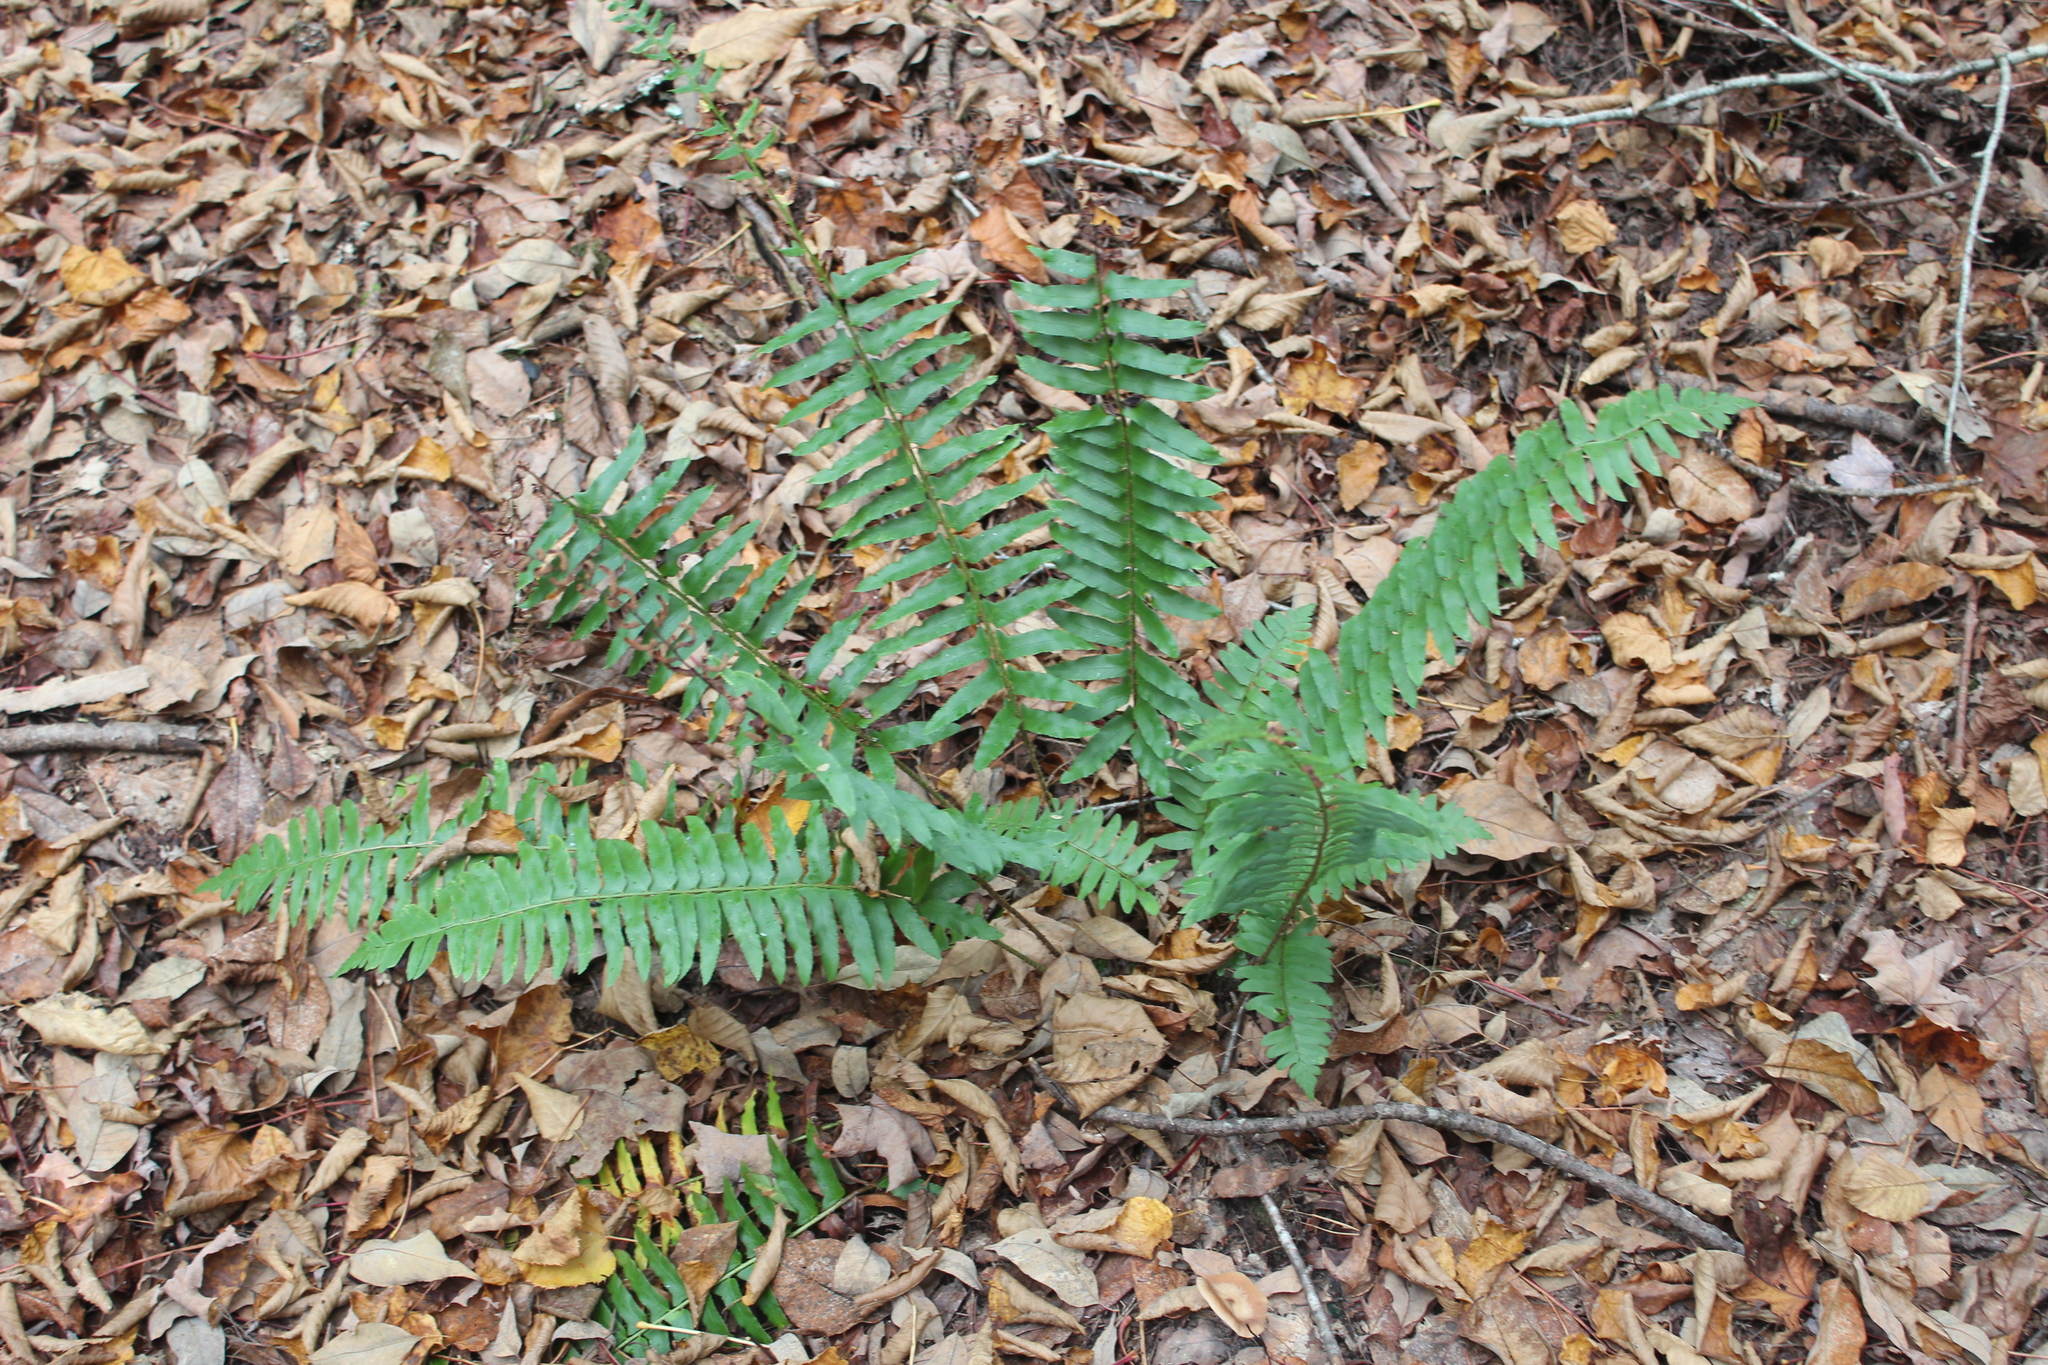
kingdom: Plantae
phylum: Tracheophyta
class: Polypodiopsida
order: Polypodiales
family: Dryopteridaceae
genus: Polystichum
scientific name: Polystichum acrostichoides
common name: Christmas fern
